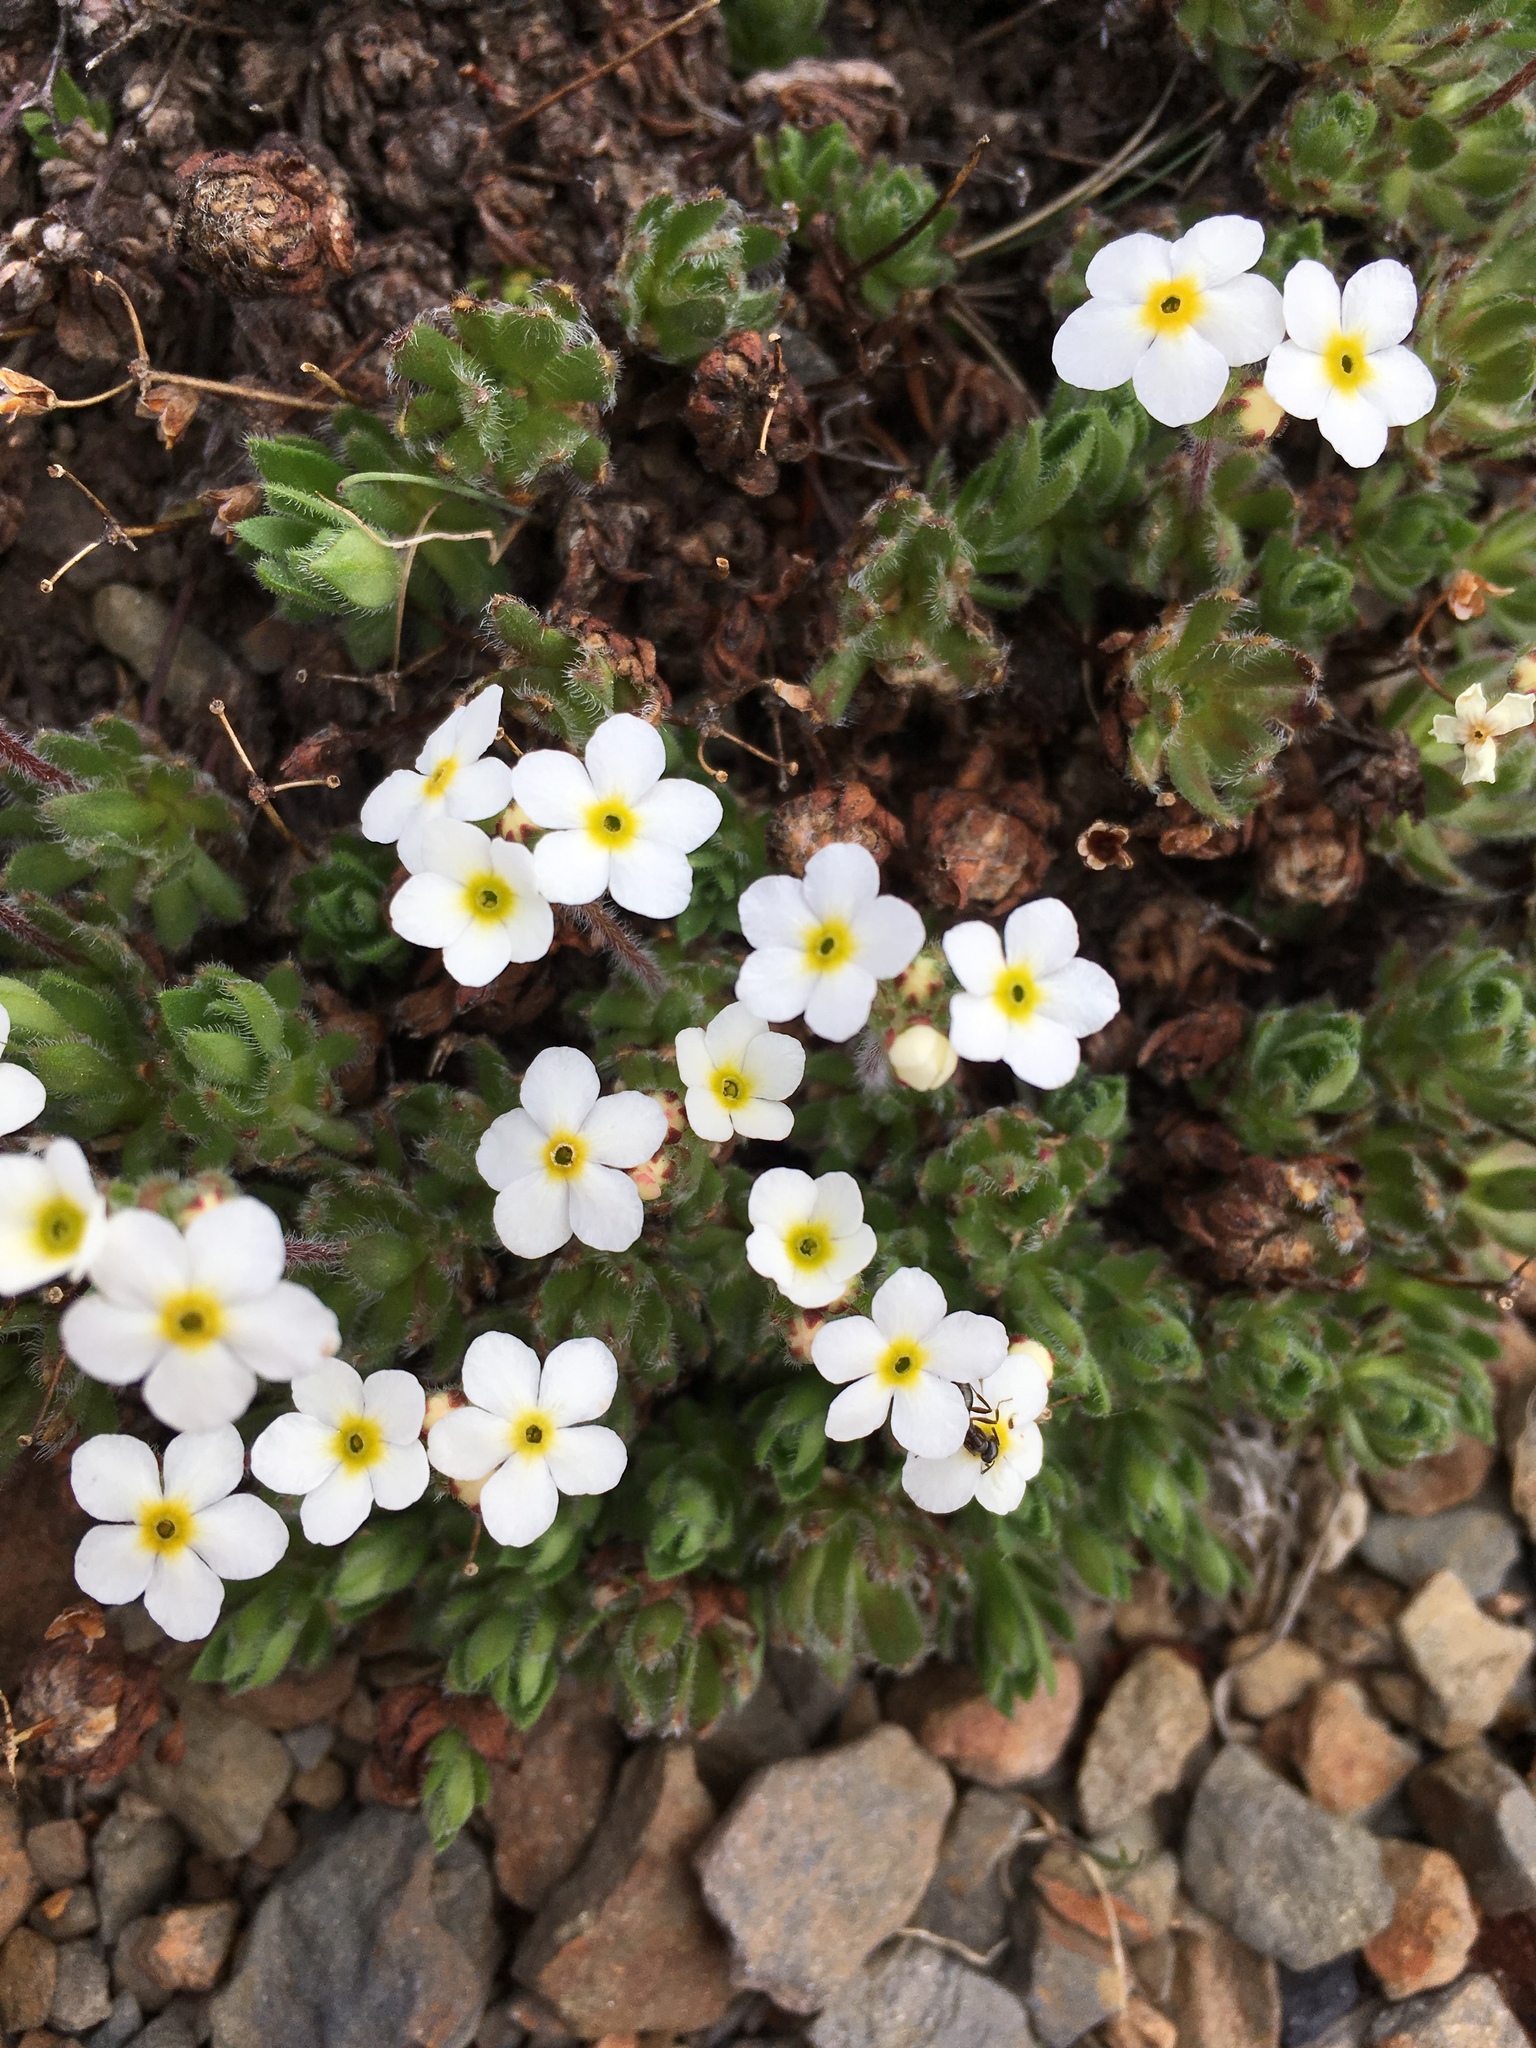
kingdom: Plantae
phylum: Tracheophyta
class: Magnoliopsida
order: Ericales
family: Primulaceae
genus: Androsace
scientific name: Androsace chamaejasme
